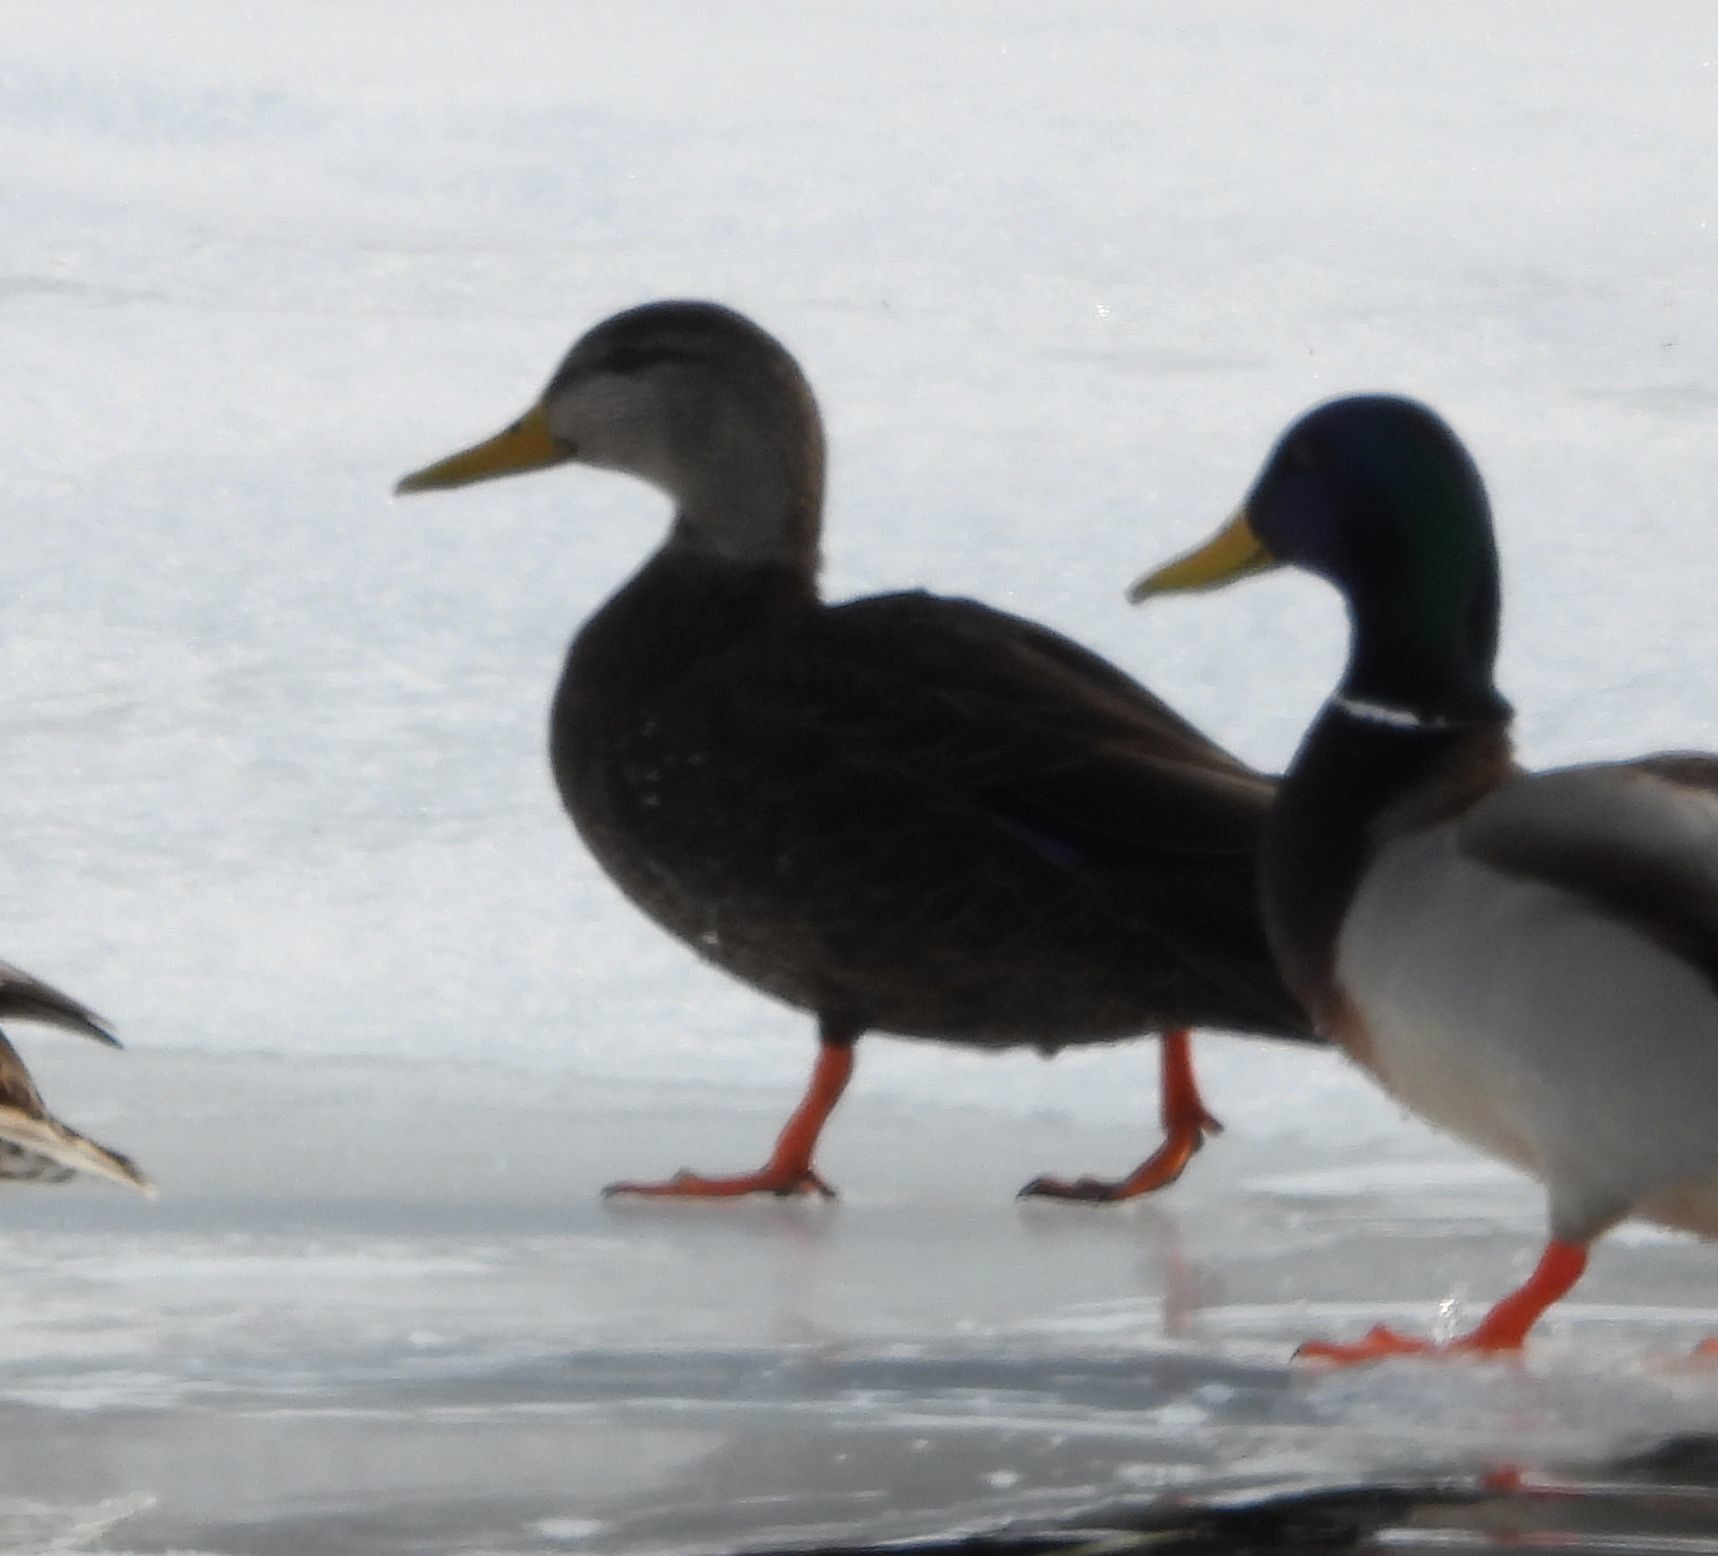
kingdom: Animalia
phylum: Chordata
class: Aves
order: Anseriformes
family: Anatidae
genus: Anas
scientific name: Anas rubripes
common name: American black duck
